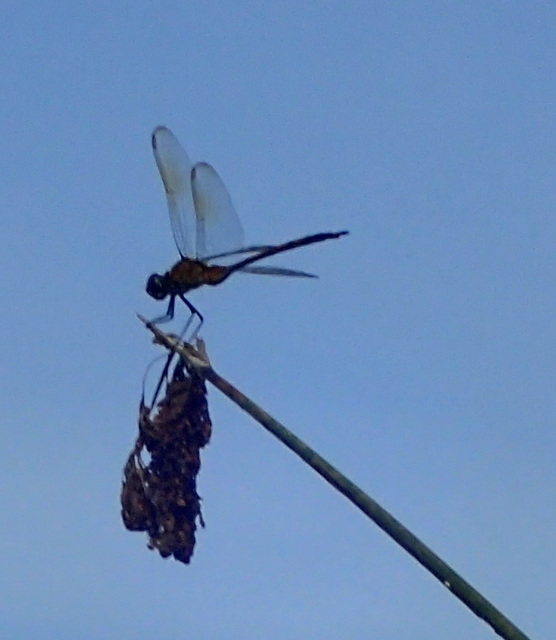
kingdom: Animalia
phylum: Arthropoda
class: Insecta
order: Odonata
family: Libellulidae
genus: Brachymesia
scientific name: Brachymesia gravida
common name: Four-spotted pennant
